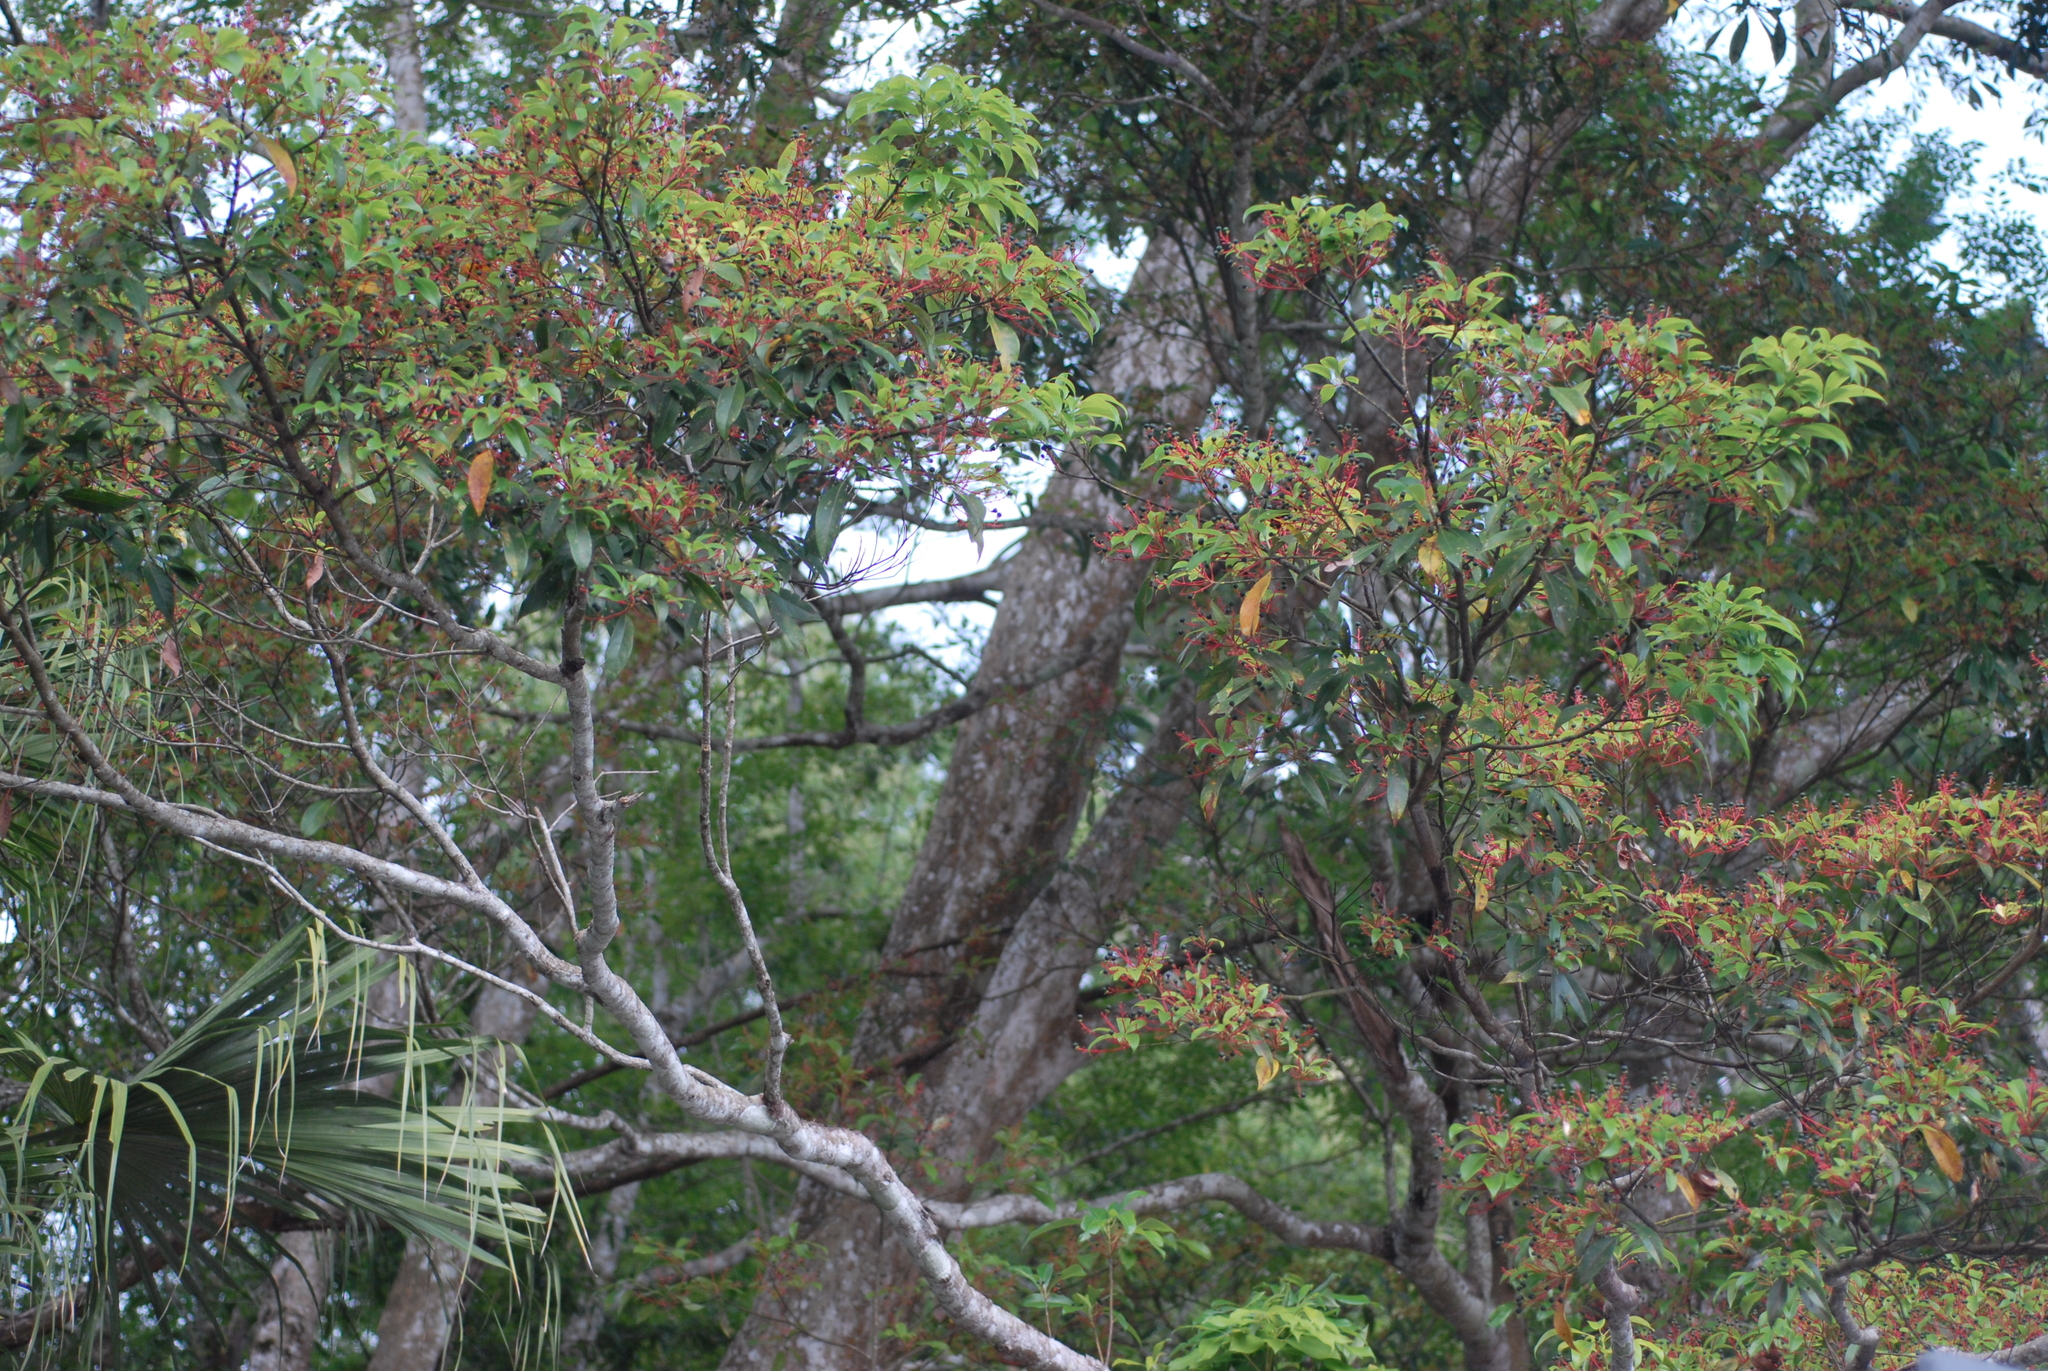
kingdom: Plantae
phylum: Tracheophyta
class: Magnoliopsida
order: Laurales
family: Lauraceae
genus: Machilus
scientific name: Machilus thunbergii
